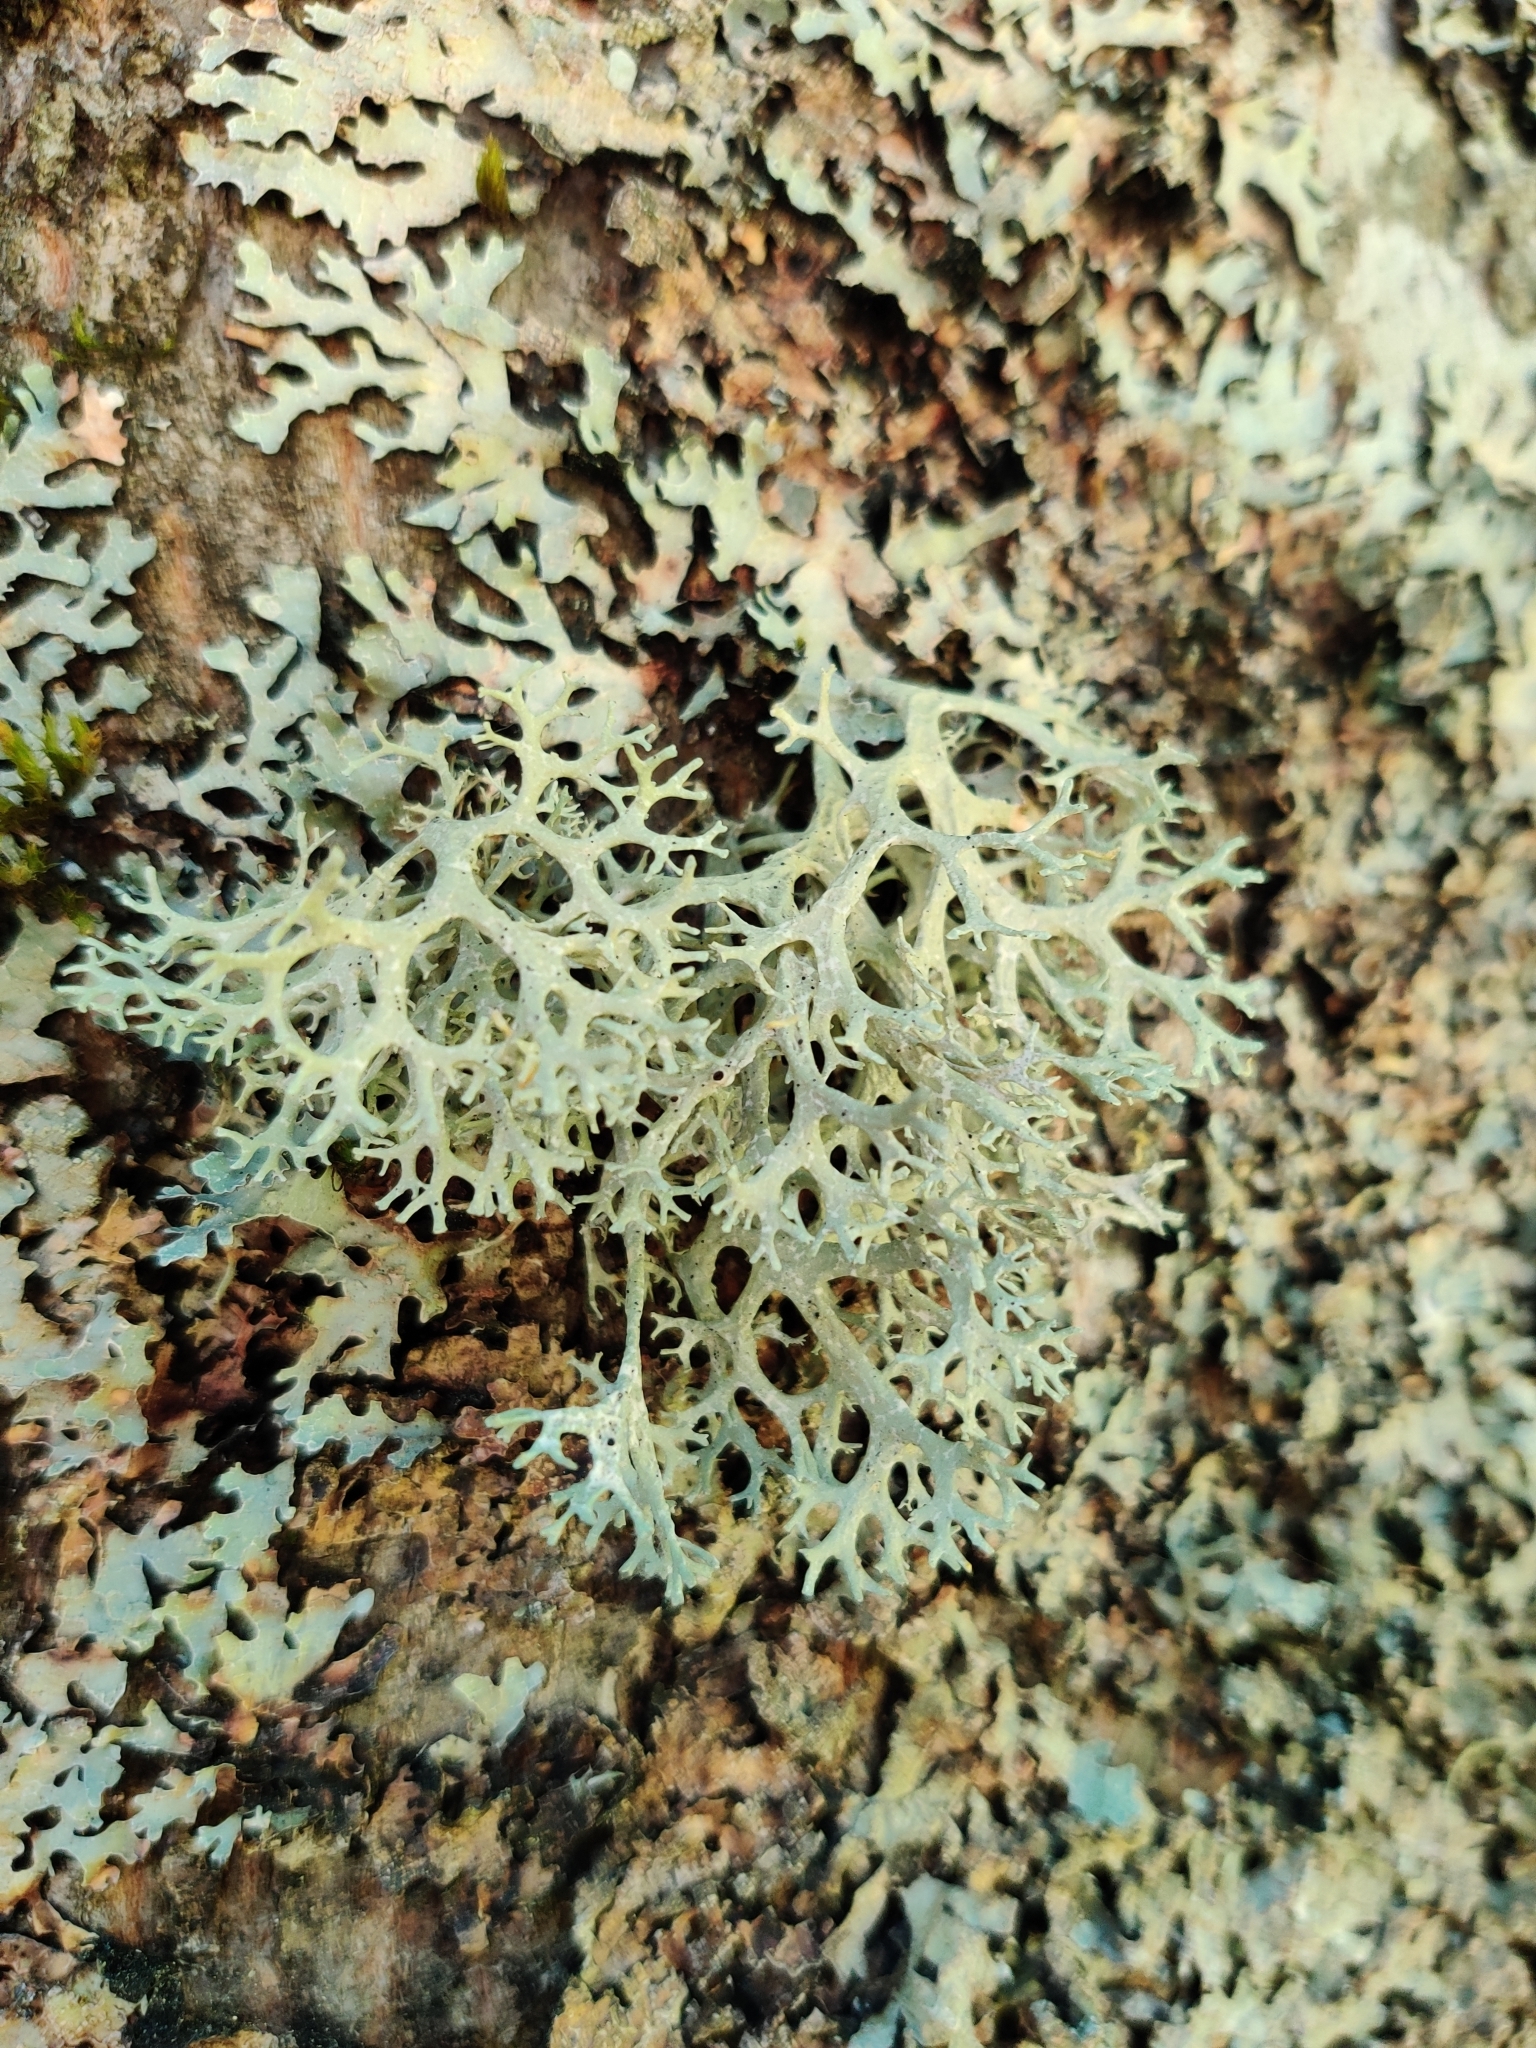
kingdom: Fungi
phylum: Ascomycota
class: Lecanoromycetes
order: Lecanorales
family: Parmeliaceae
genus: Evernia
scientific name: Evernia prunastri
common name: Oak moss
